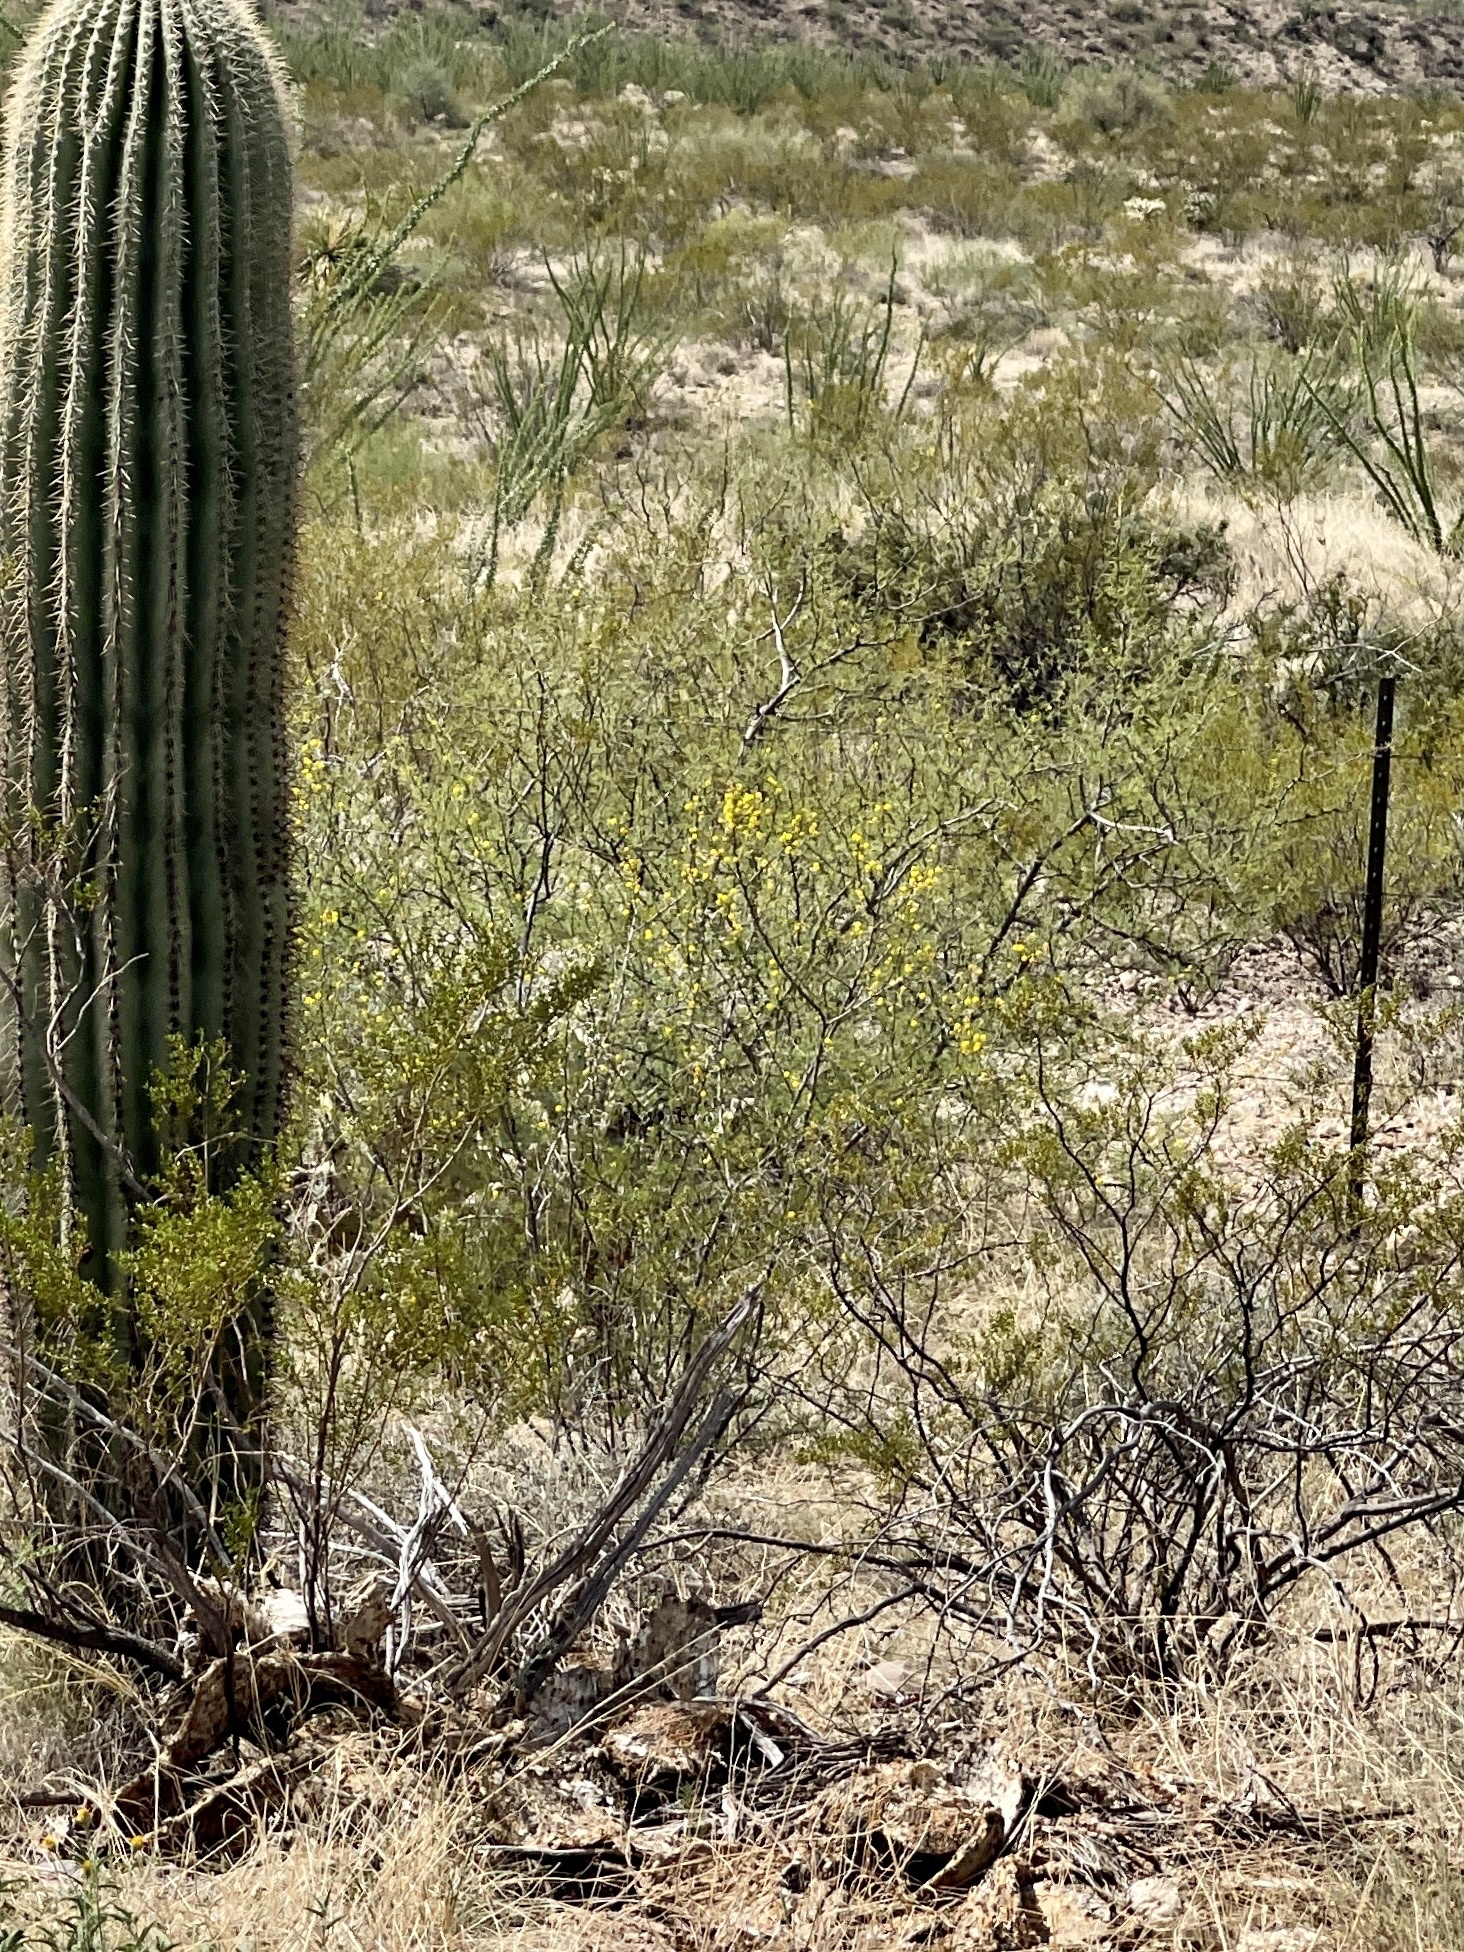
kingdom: Plantae
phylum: Tracheophyta
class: Magnoliopsida
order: Zygophyllales
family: Zygophyllaceae
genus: Larrea
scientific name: Larrea tridentata
